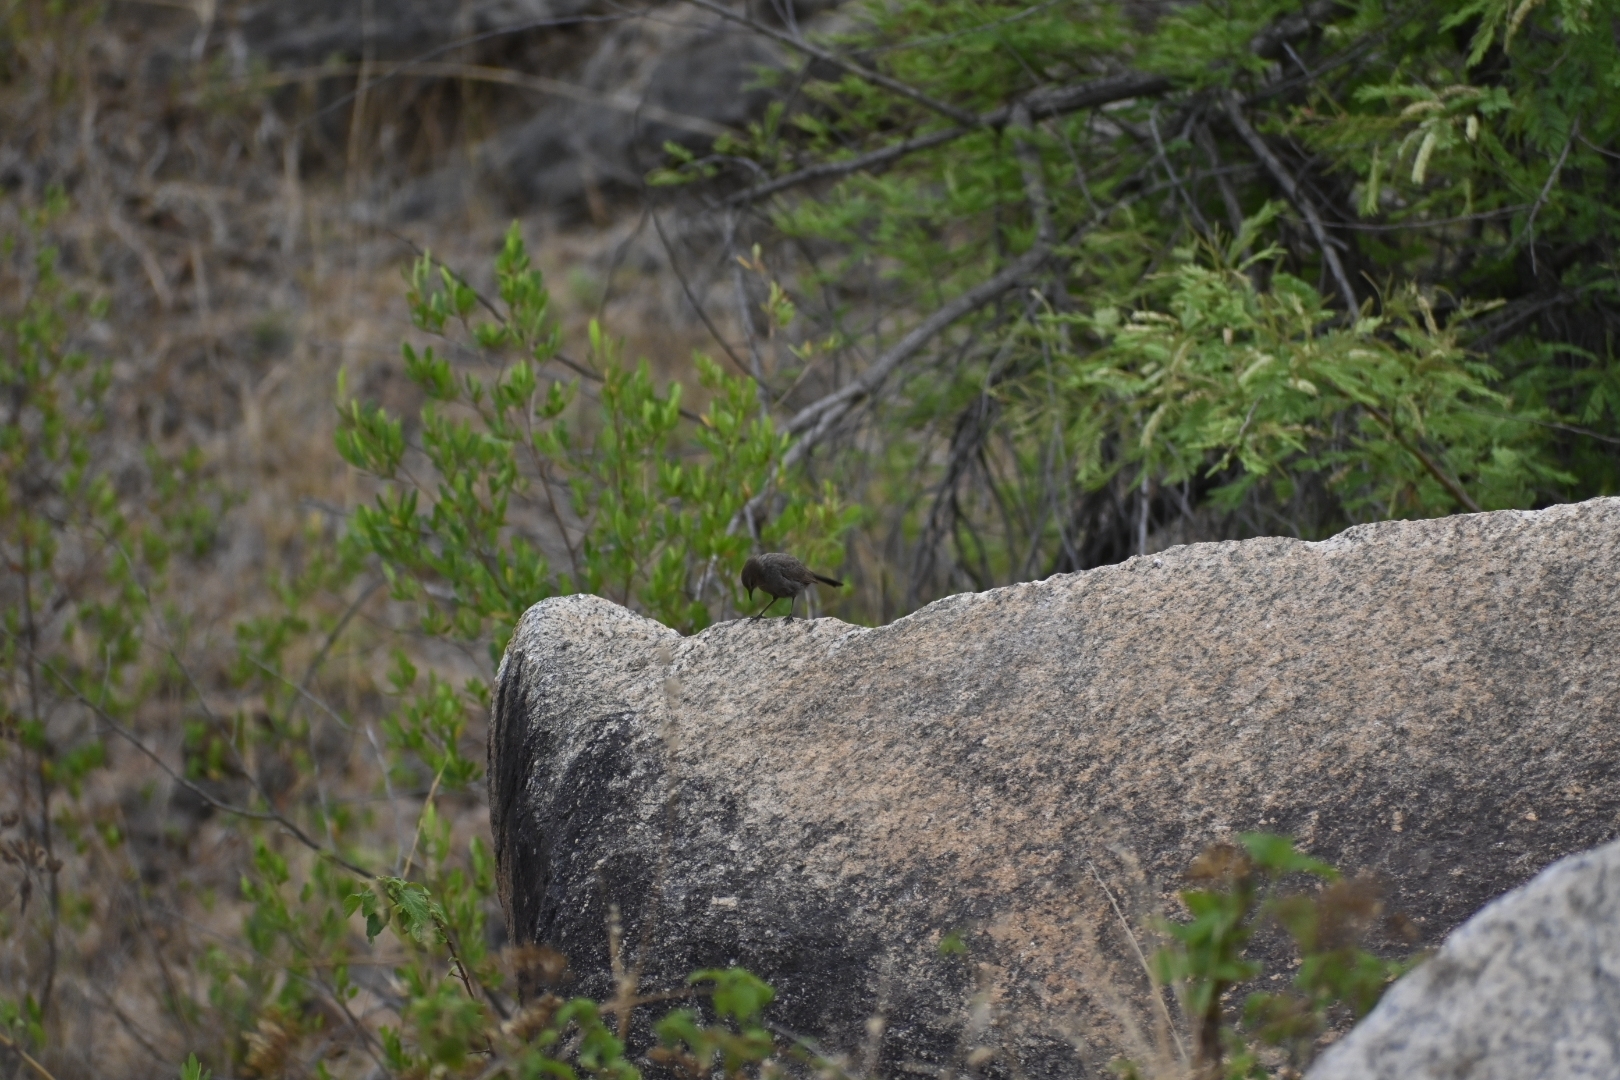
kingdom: Animalia
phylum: Chordata
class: Aves
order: Passeriformes
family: Muscicapidae
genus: Saxicola
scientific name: Saxicola caprata
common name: Pied bush chat
